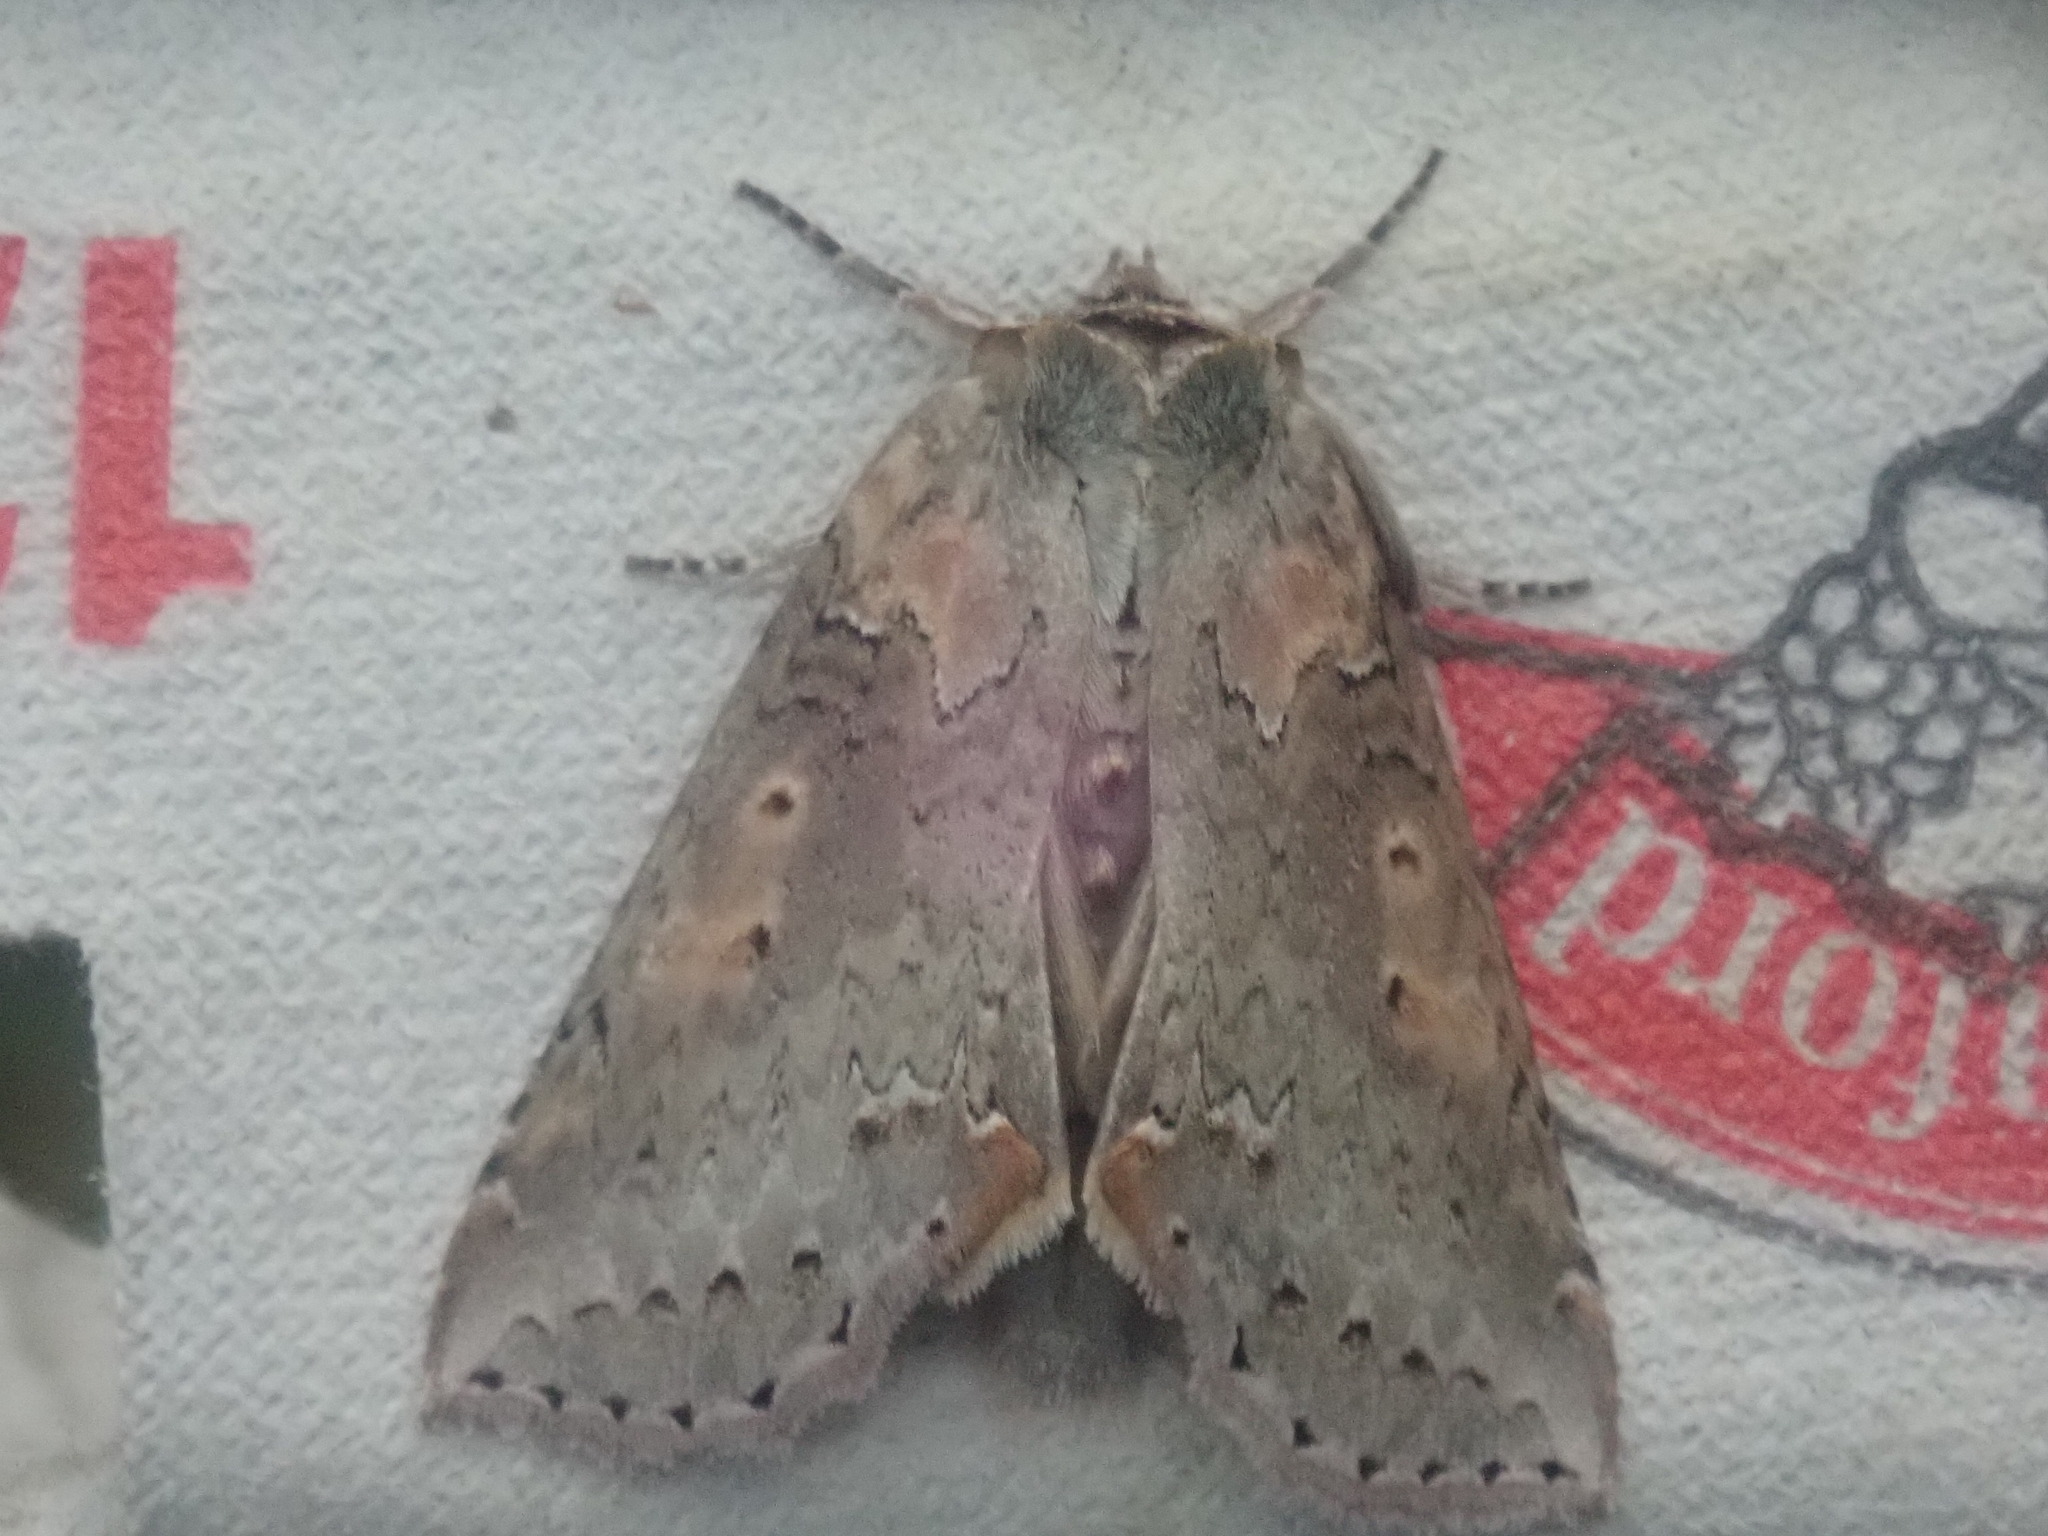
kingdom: Animalia
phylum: Arthropoda
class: Insecta
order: Lepidoptera
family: Drepanidae
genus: Pseudothyatira
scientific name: Pseudothyatira cymatophoroides
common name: Tufted thyatirid moth
